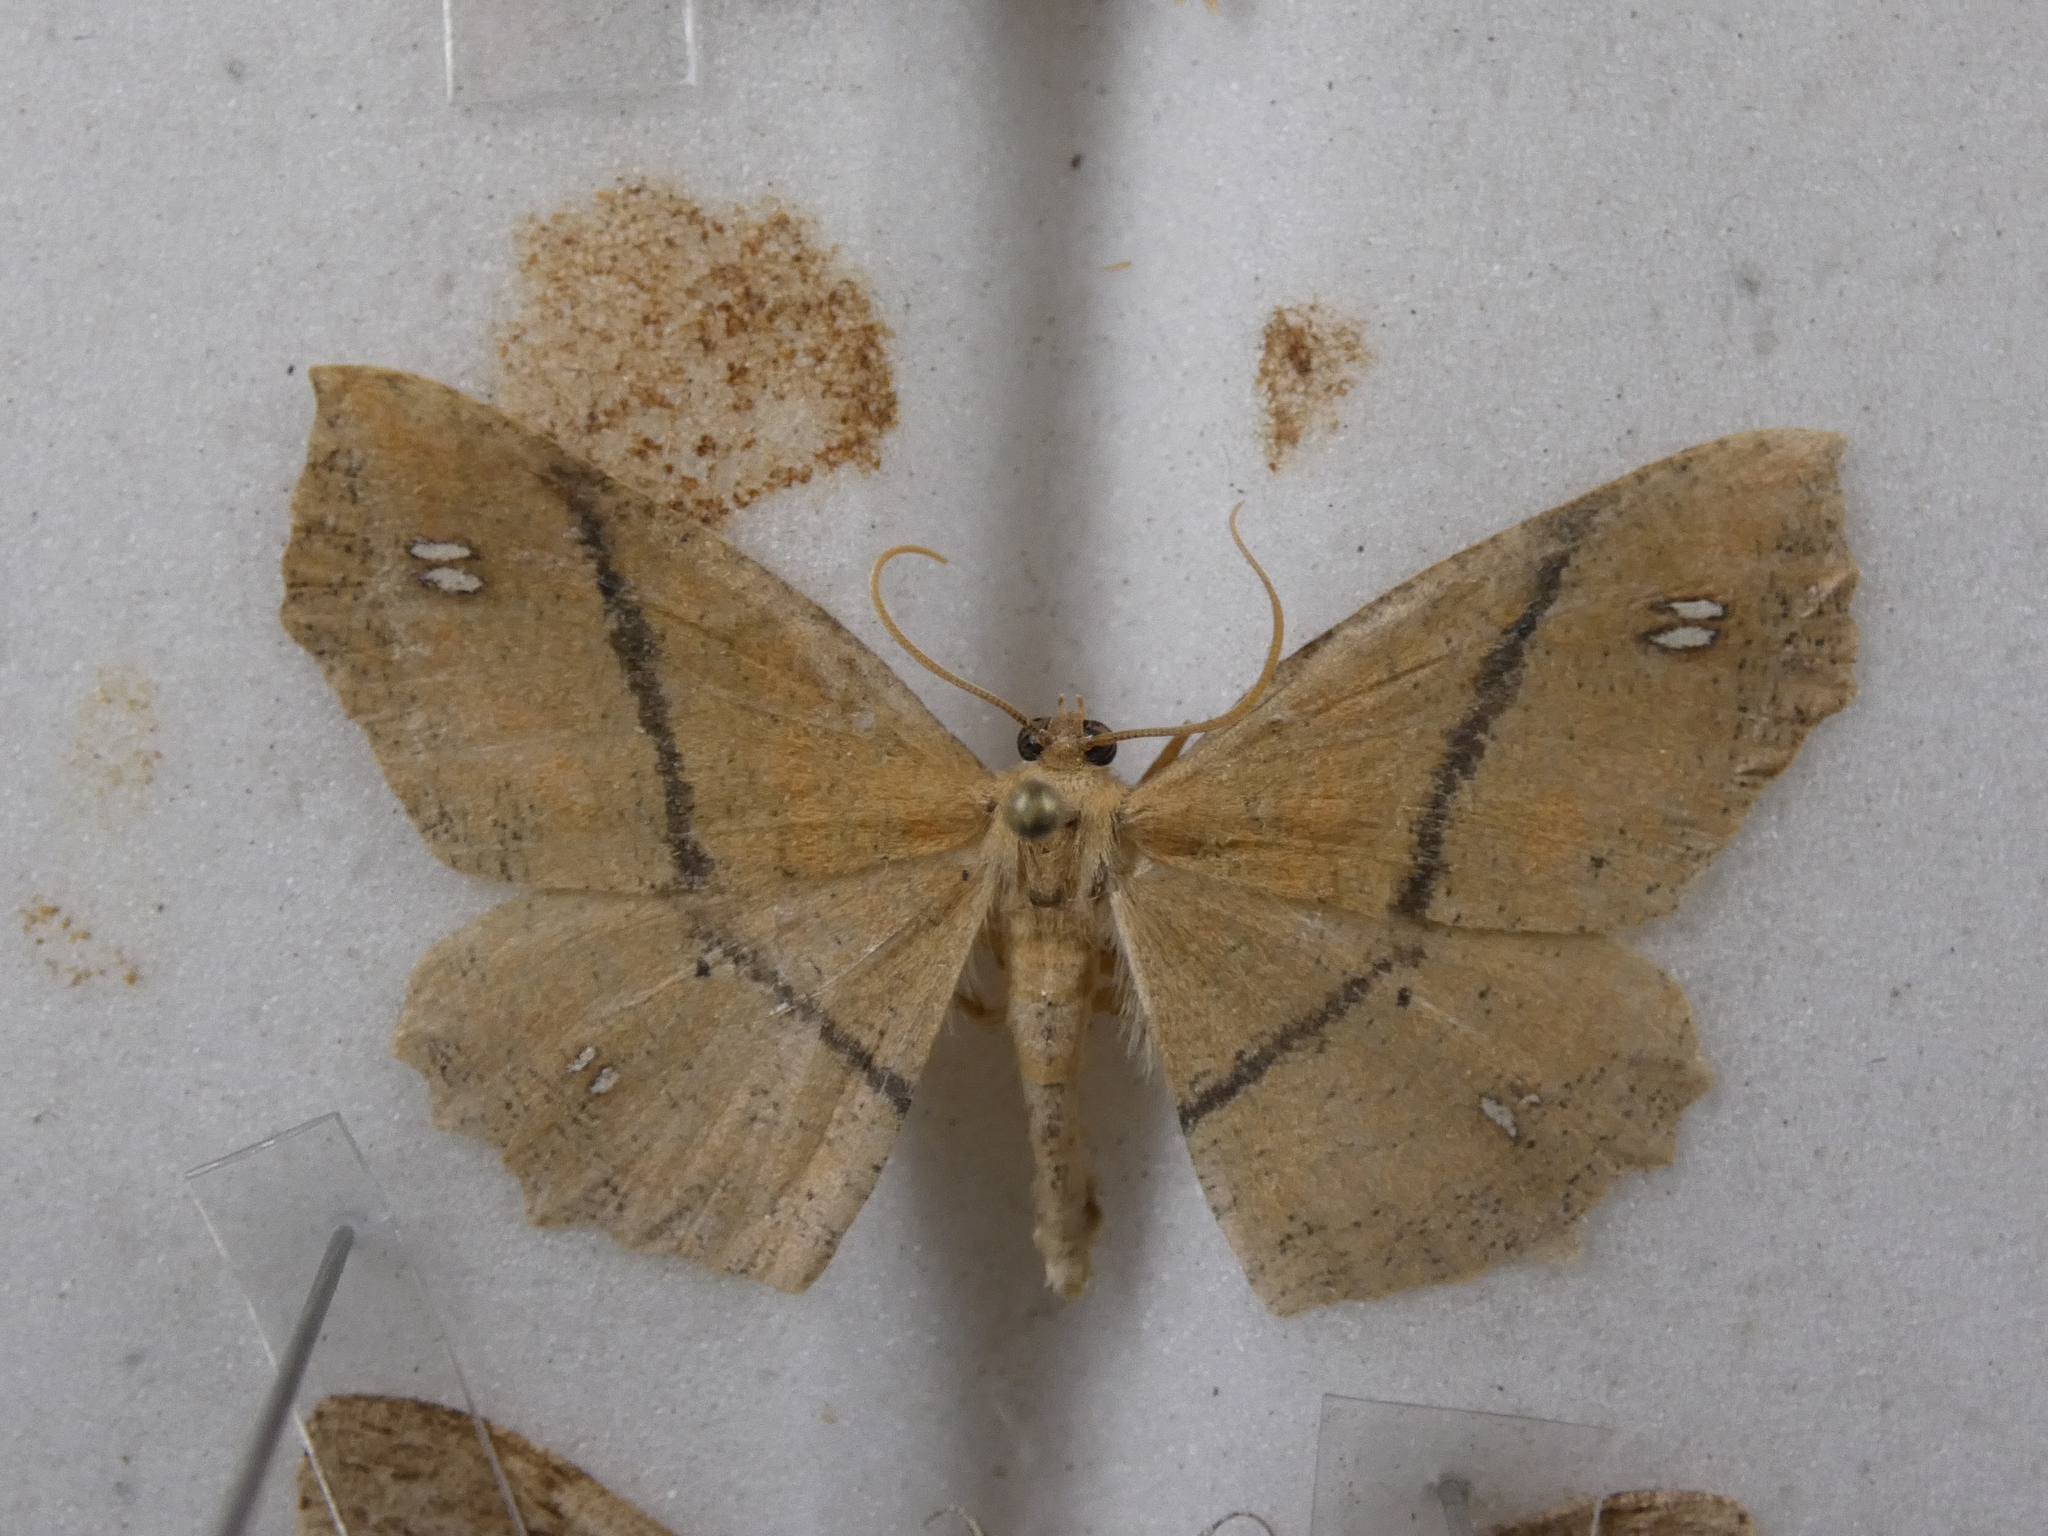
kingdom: Animalia
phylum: Arthropoda
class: Insecta
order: Lepidoptera
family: Geometridae
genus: Xyridacma
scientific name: Xyridacma ustaria
